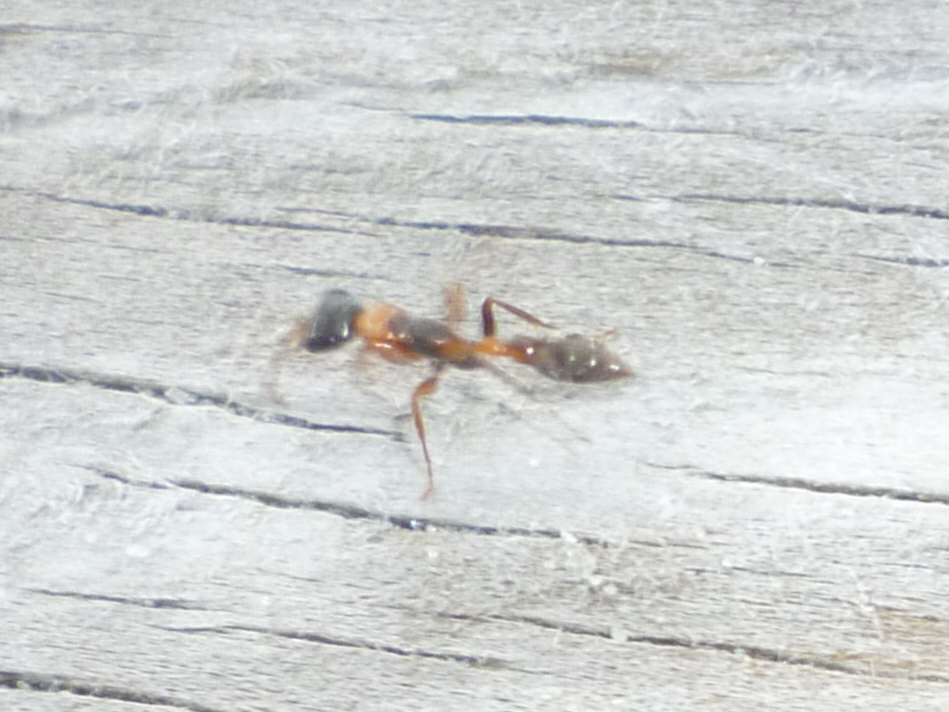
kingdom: Animalia
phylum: Arthropoda
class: Insecta
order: Hymenoptera
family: Formicidae
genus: Pseudomyrmex
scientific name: Pseudomyrmex gracilis
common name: Graceful twig ant
